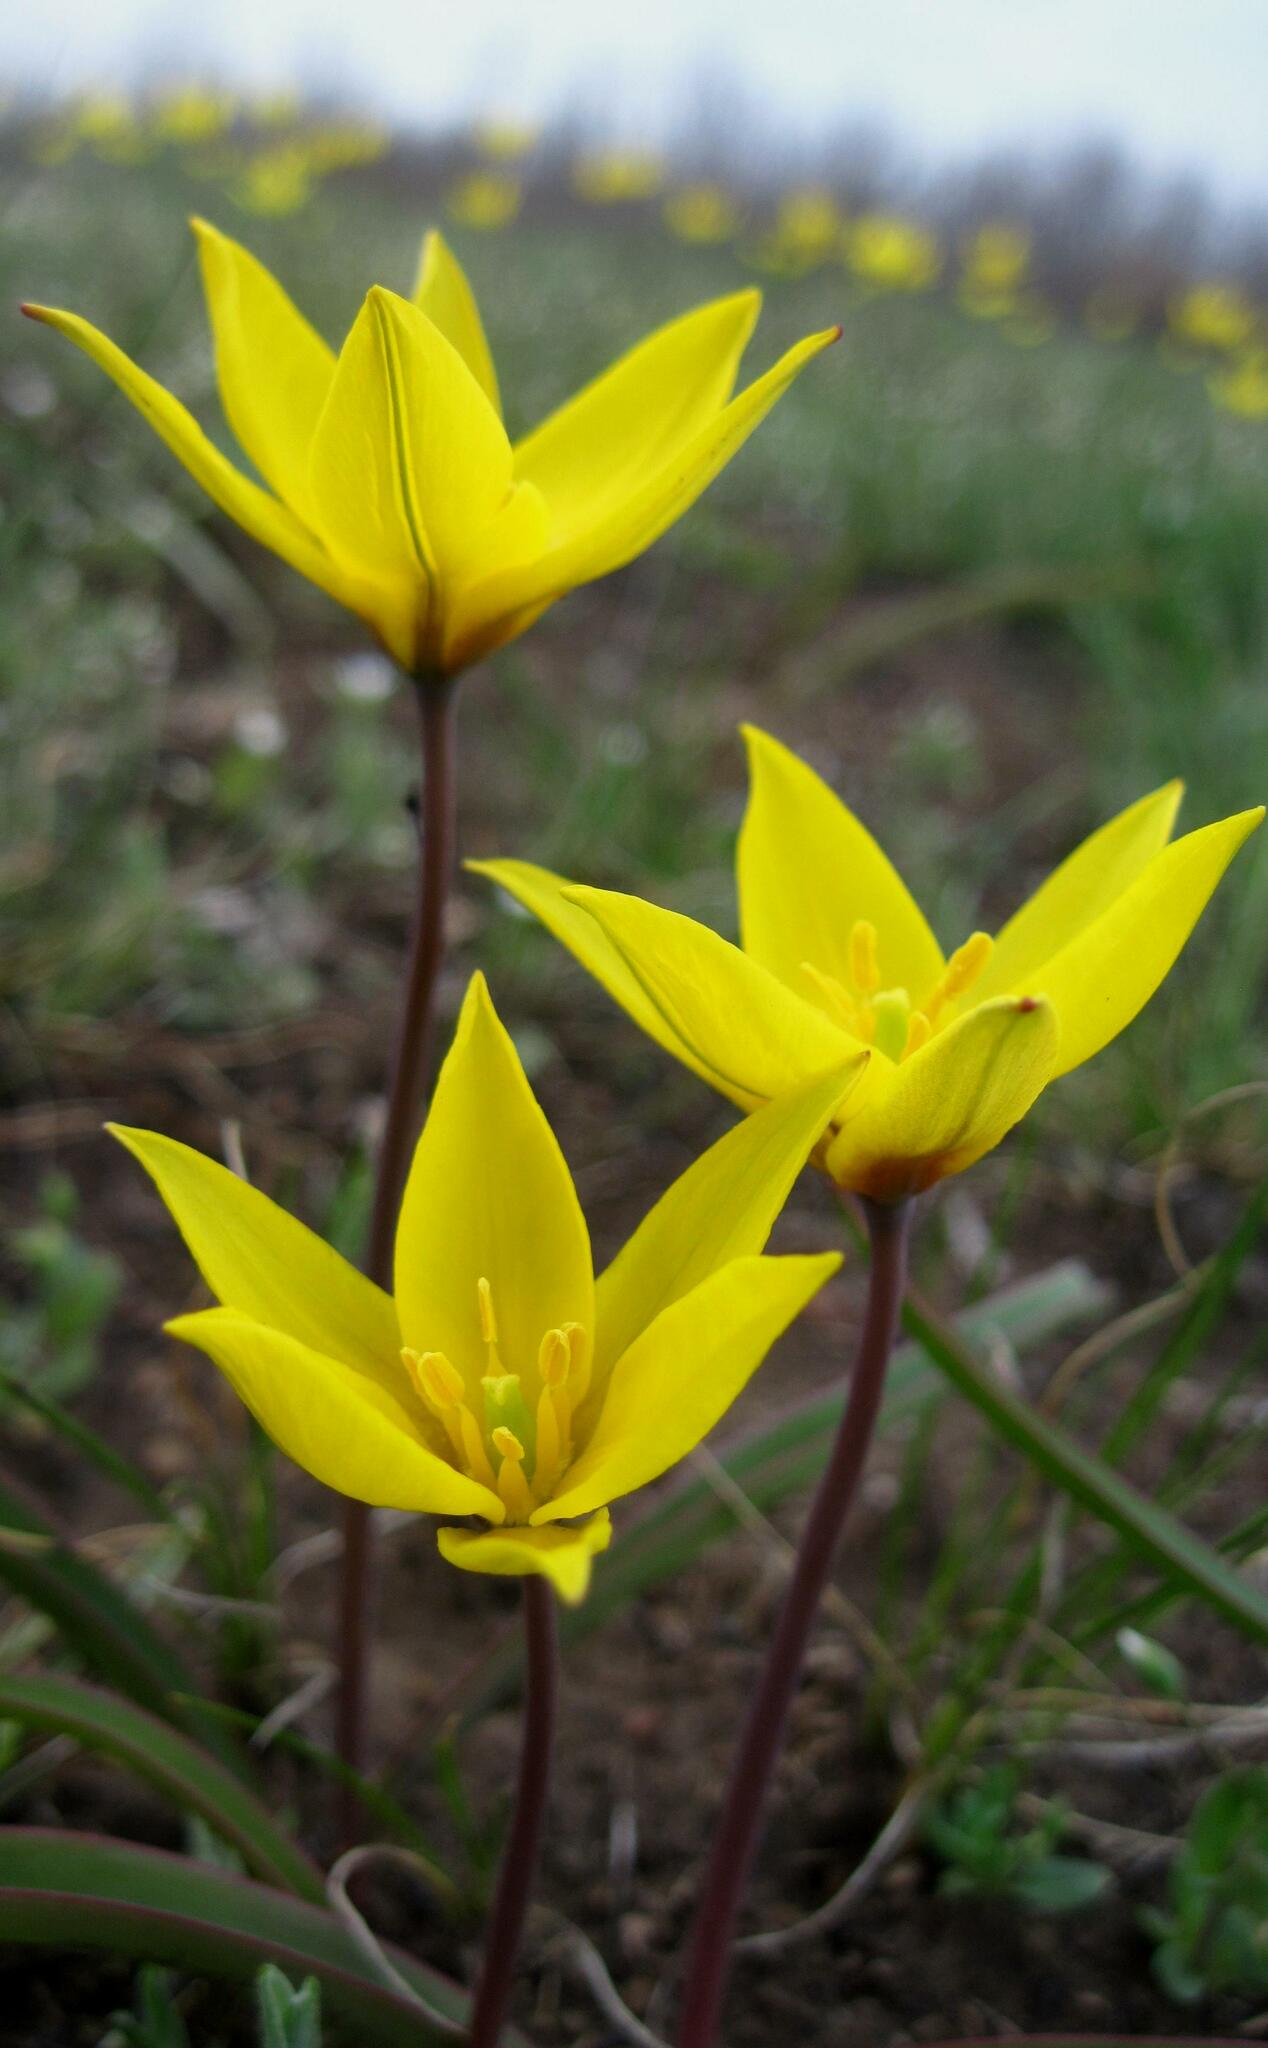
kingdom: Plantae
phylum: Tracheophyta
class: Liliopsida
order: Liliales
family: Liliaceae
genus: Tulipa
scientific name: Tulipa sylvestris
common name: Wild tulip
